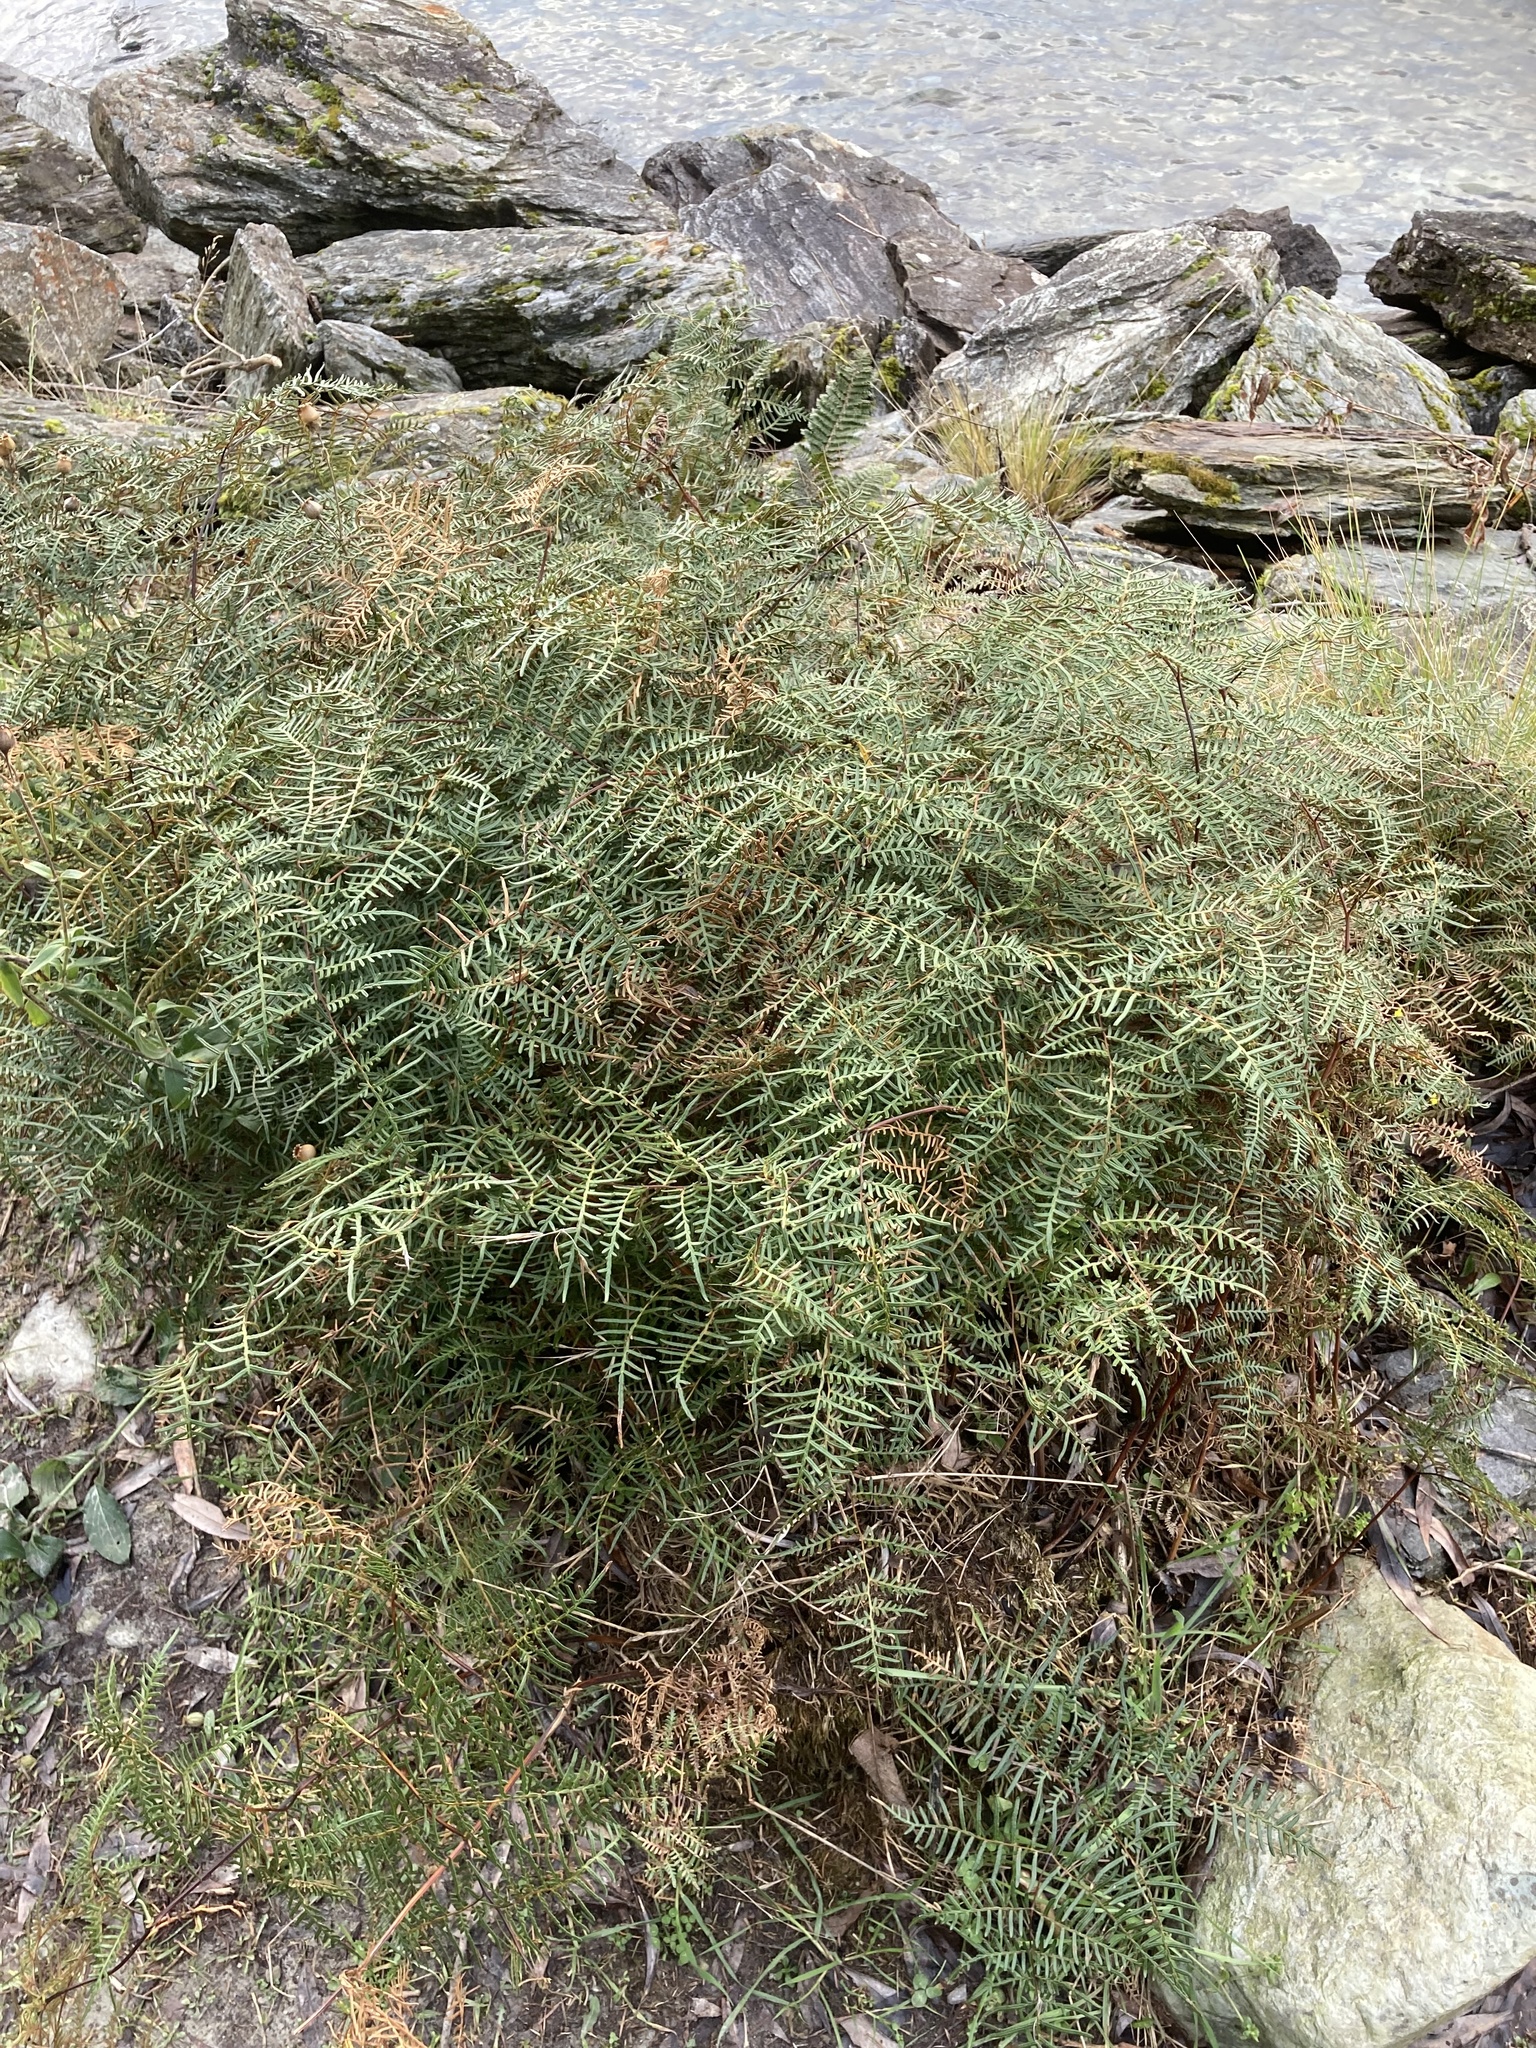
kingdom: Plantae
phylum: Tracheophyta
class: Polypodiopsida
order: Polypodiales
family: Dennstaedtiaceae
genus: Pteridium
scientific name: Pteridium esculentum
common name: Bracken fern
